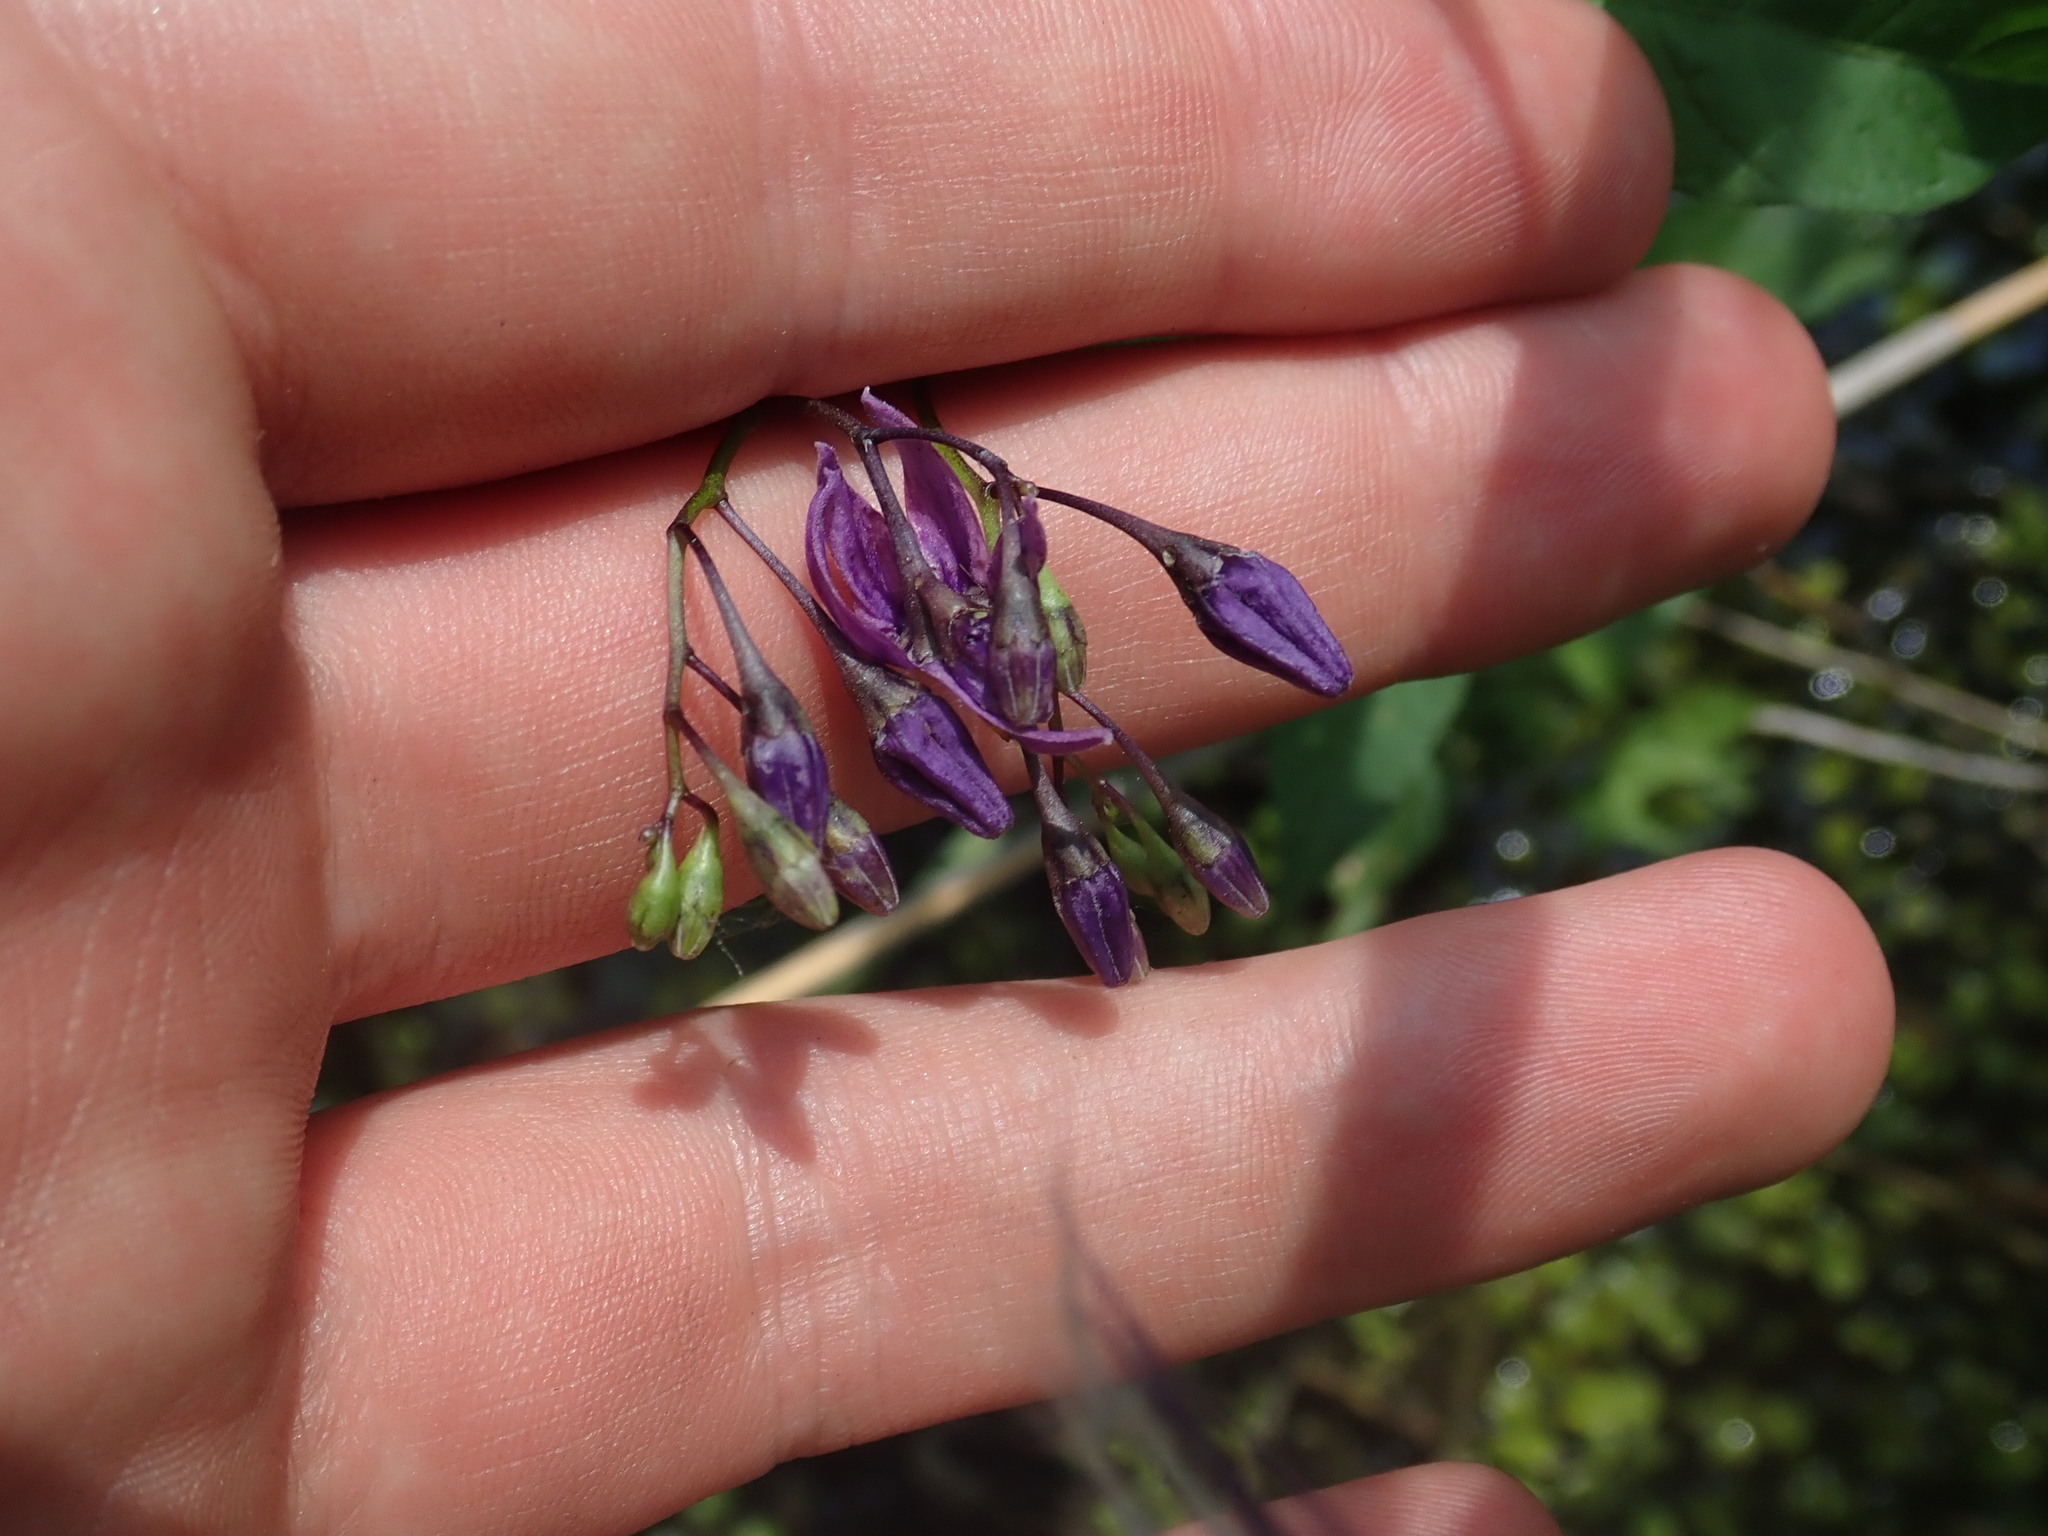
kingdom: Plantae
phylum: Tracheophyta
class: Magnoliopsida
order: Solanales
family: Solanaceae
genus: Solanum
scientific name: Solanum dulcamara
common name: Climbing nightshade
